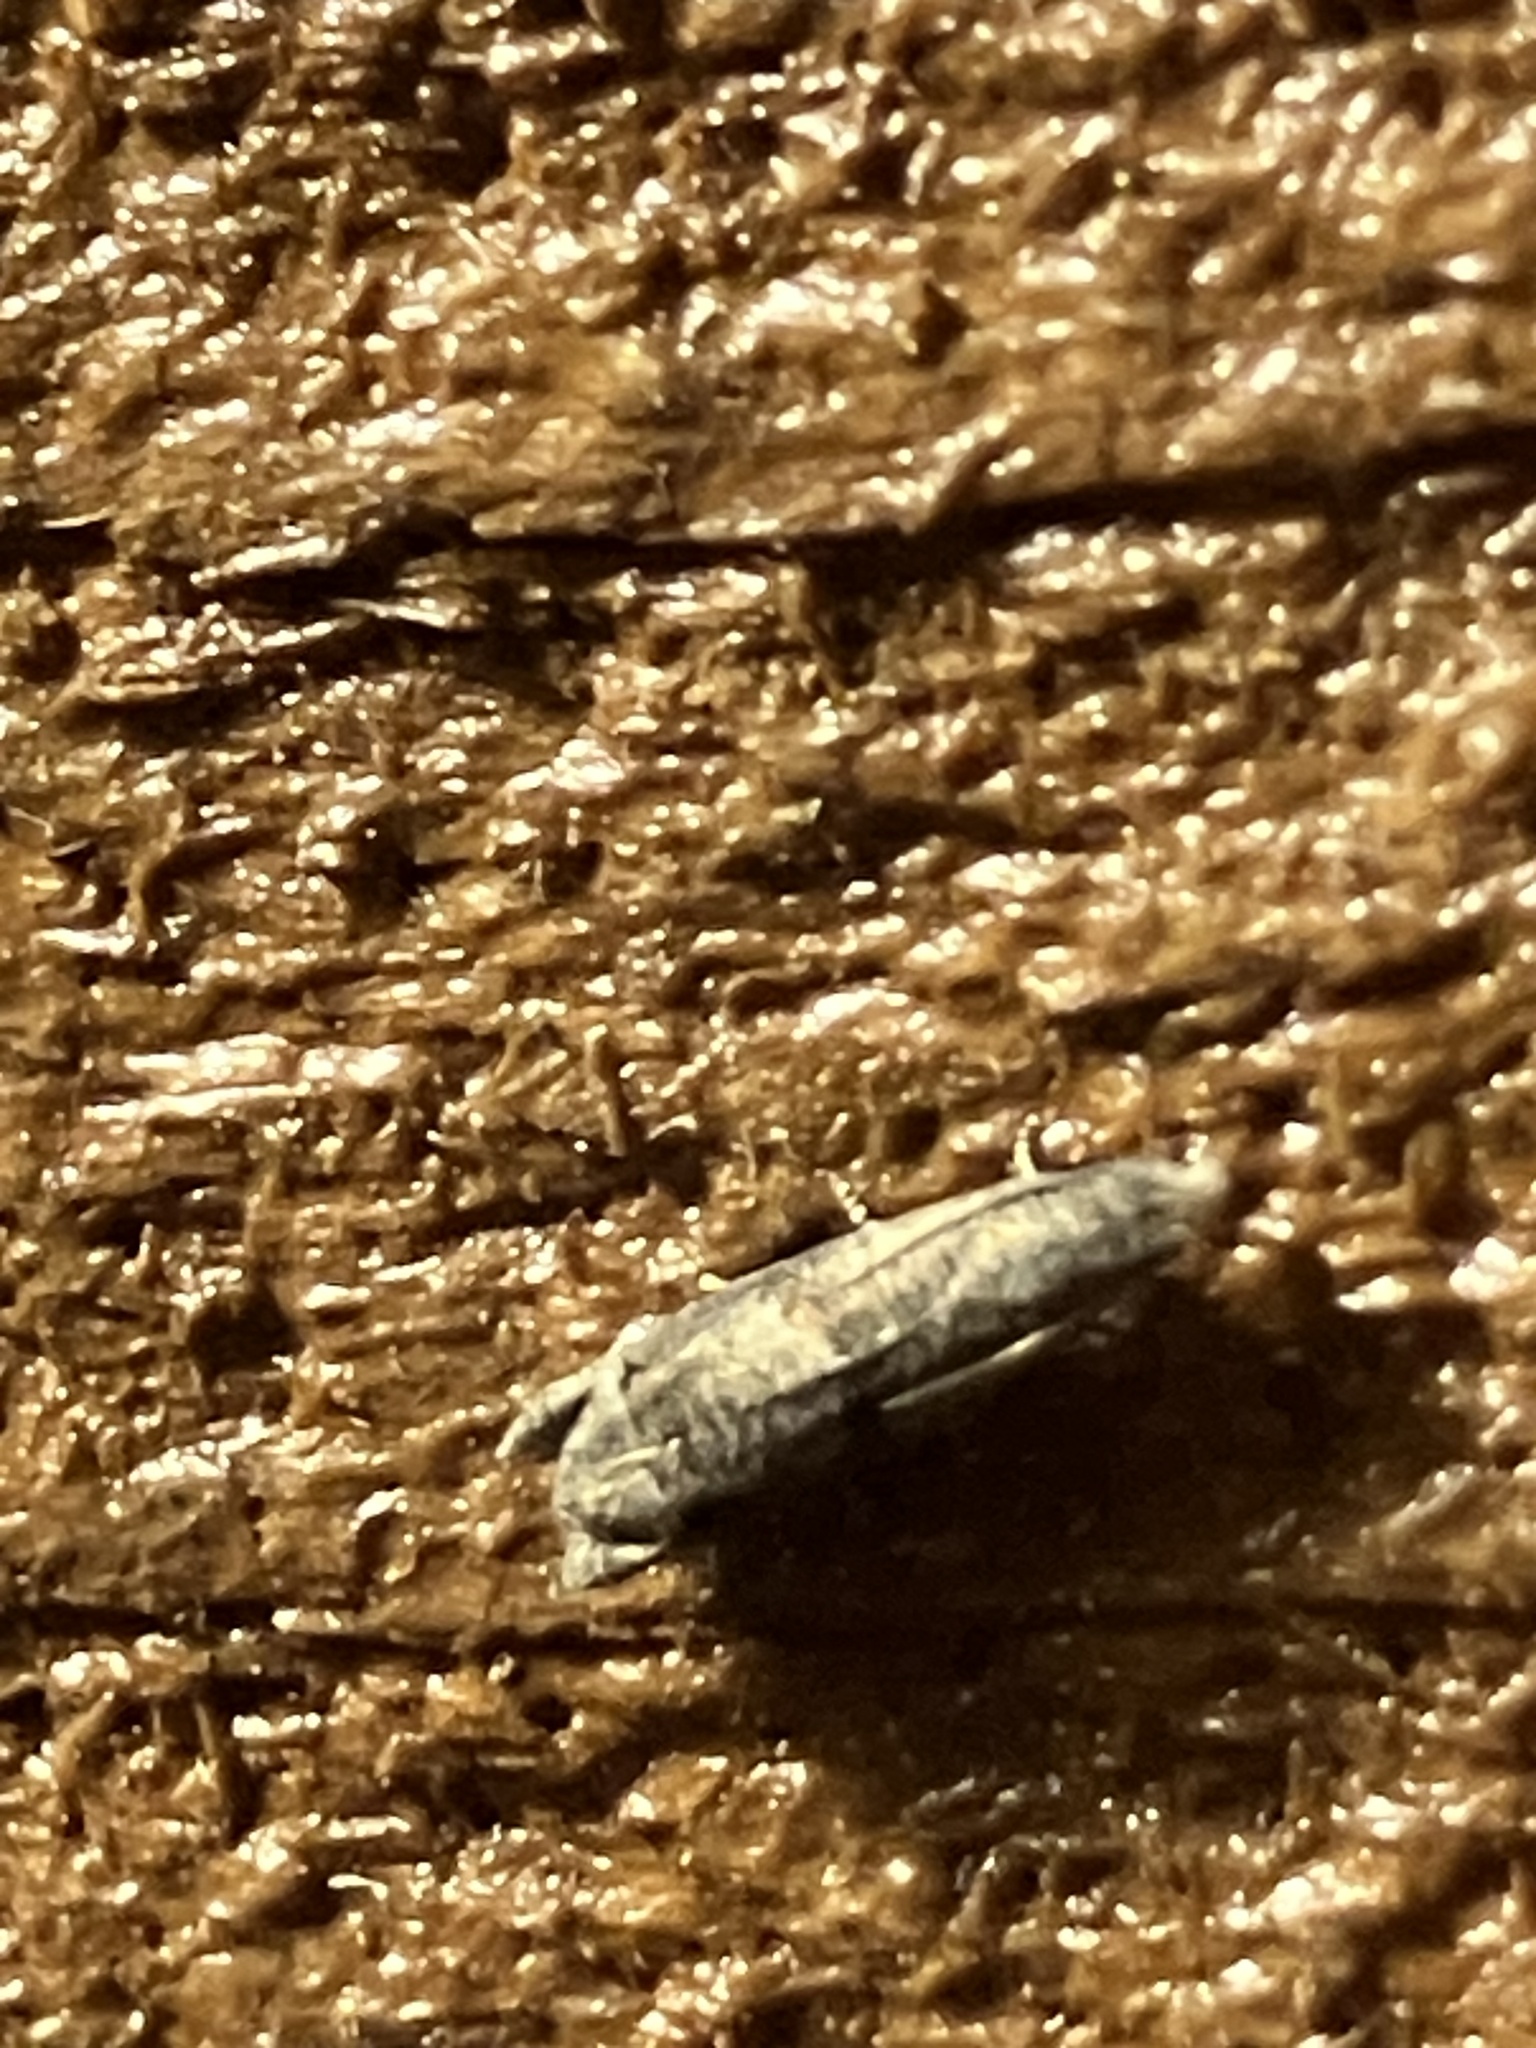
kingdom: Animalia
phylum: Arthropoda
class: Insecta
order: Lepidoptera
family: Tortricidae
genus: Epiblema
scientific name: Epiblema strenuana
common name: Ragweed borer moth
